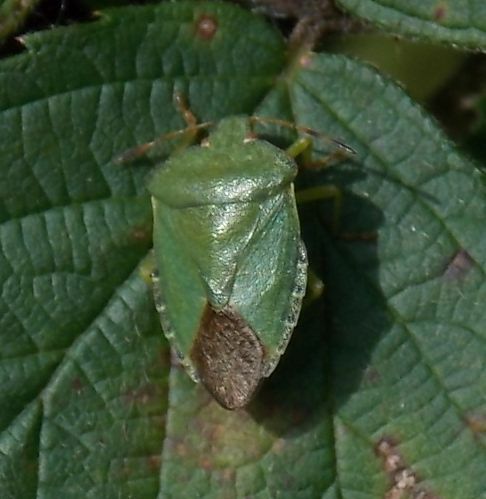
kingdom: Animalia
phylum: Arthropoda
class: Insecta
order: Hemiptera
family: Pentatomidae
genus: Palomena
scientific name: Palomena prasina
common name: Green shieldbug
